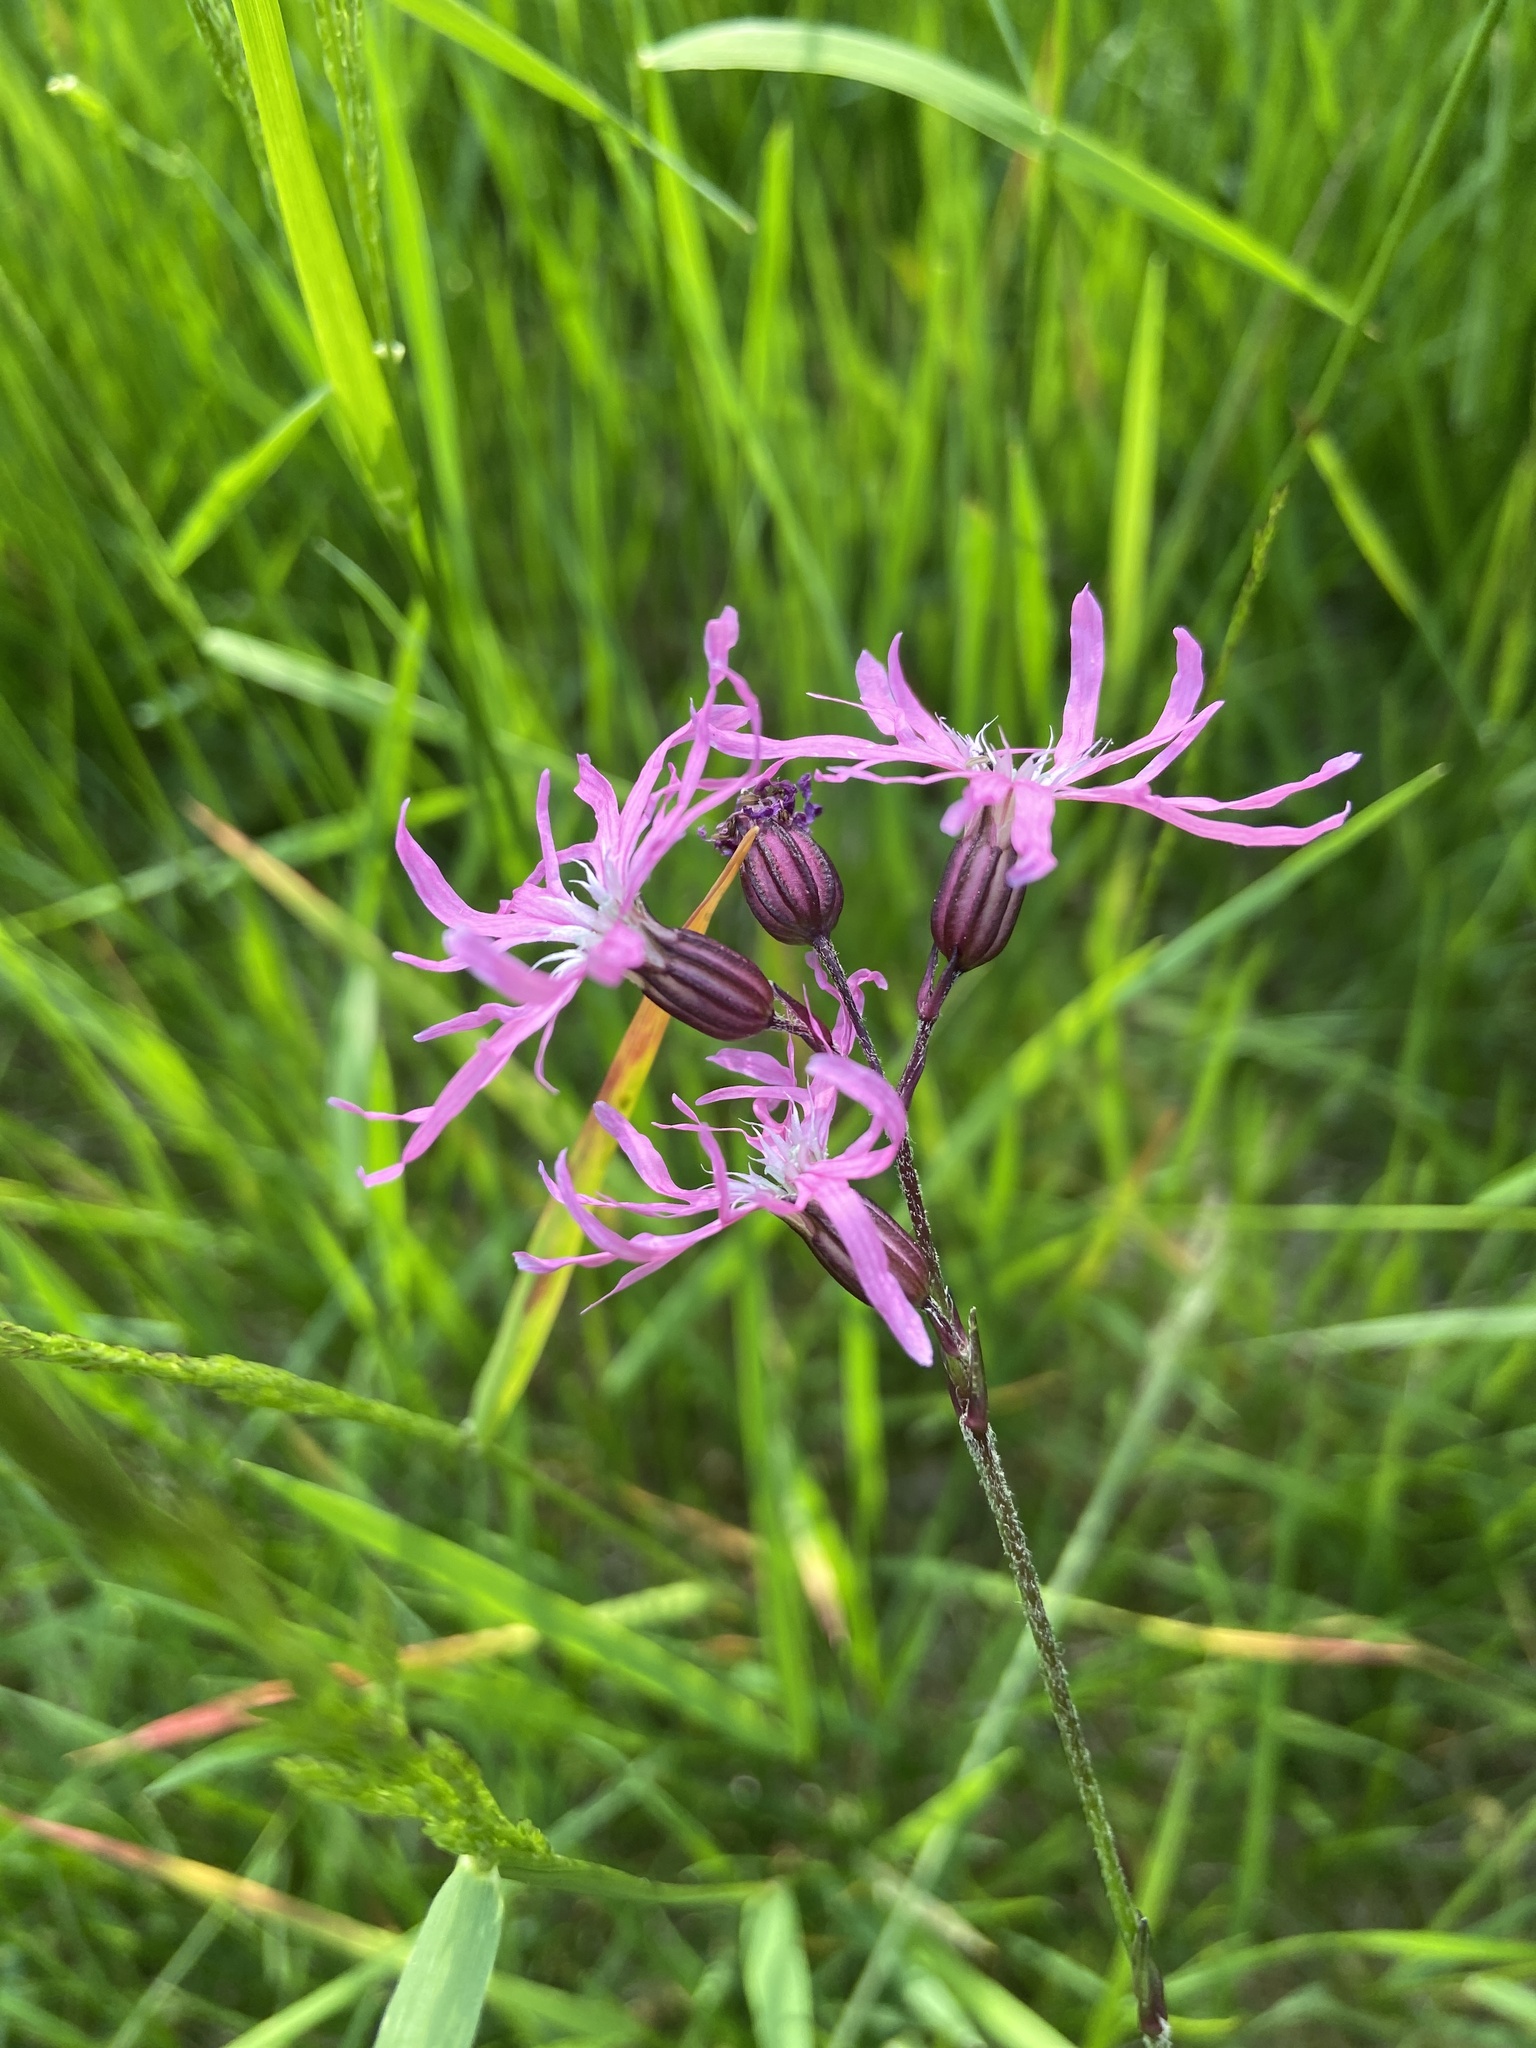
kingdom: Plantae
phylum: Tracheophyta
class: Magnoliopsida
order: Caryophyllales
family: Caryophyllaceae
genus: Silene
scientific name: Silene flos-cuculi
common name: Ragged-robin
